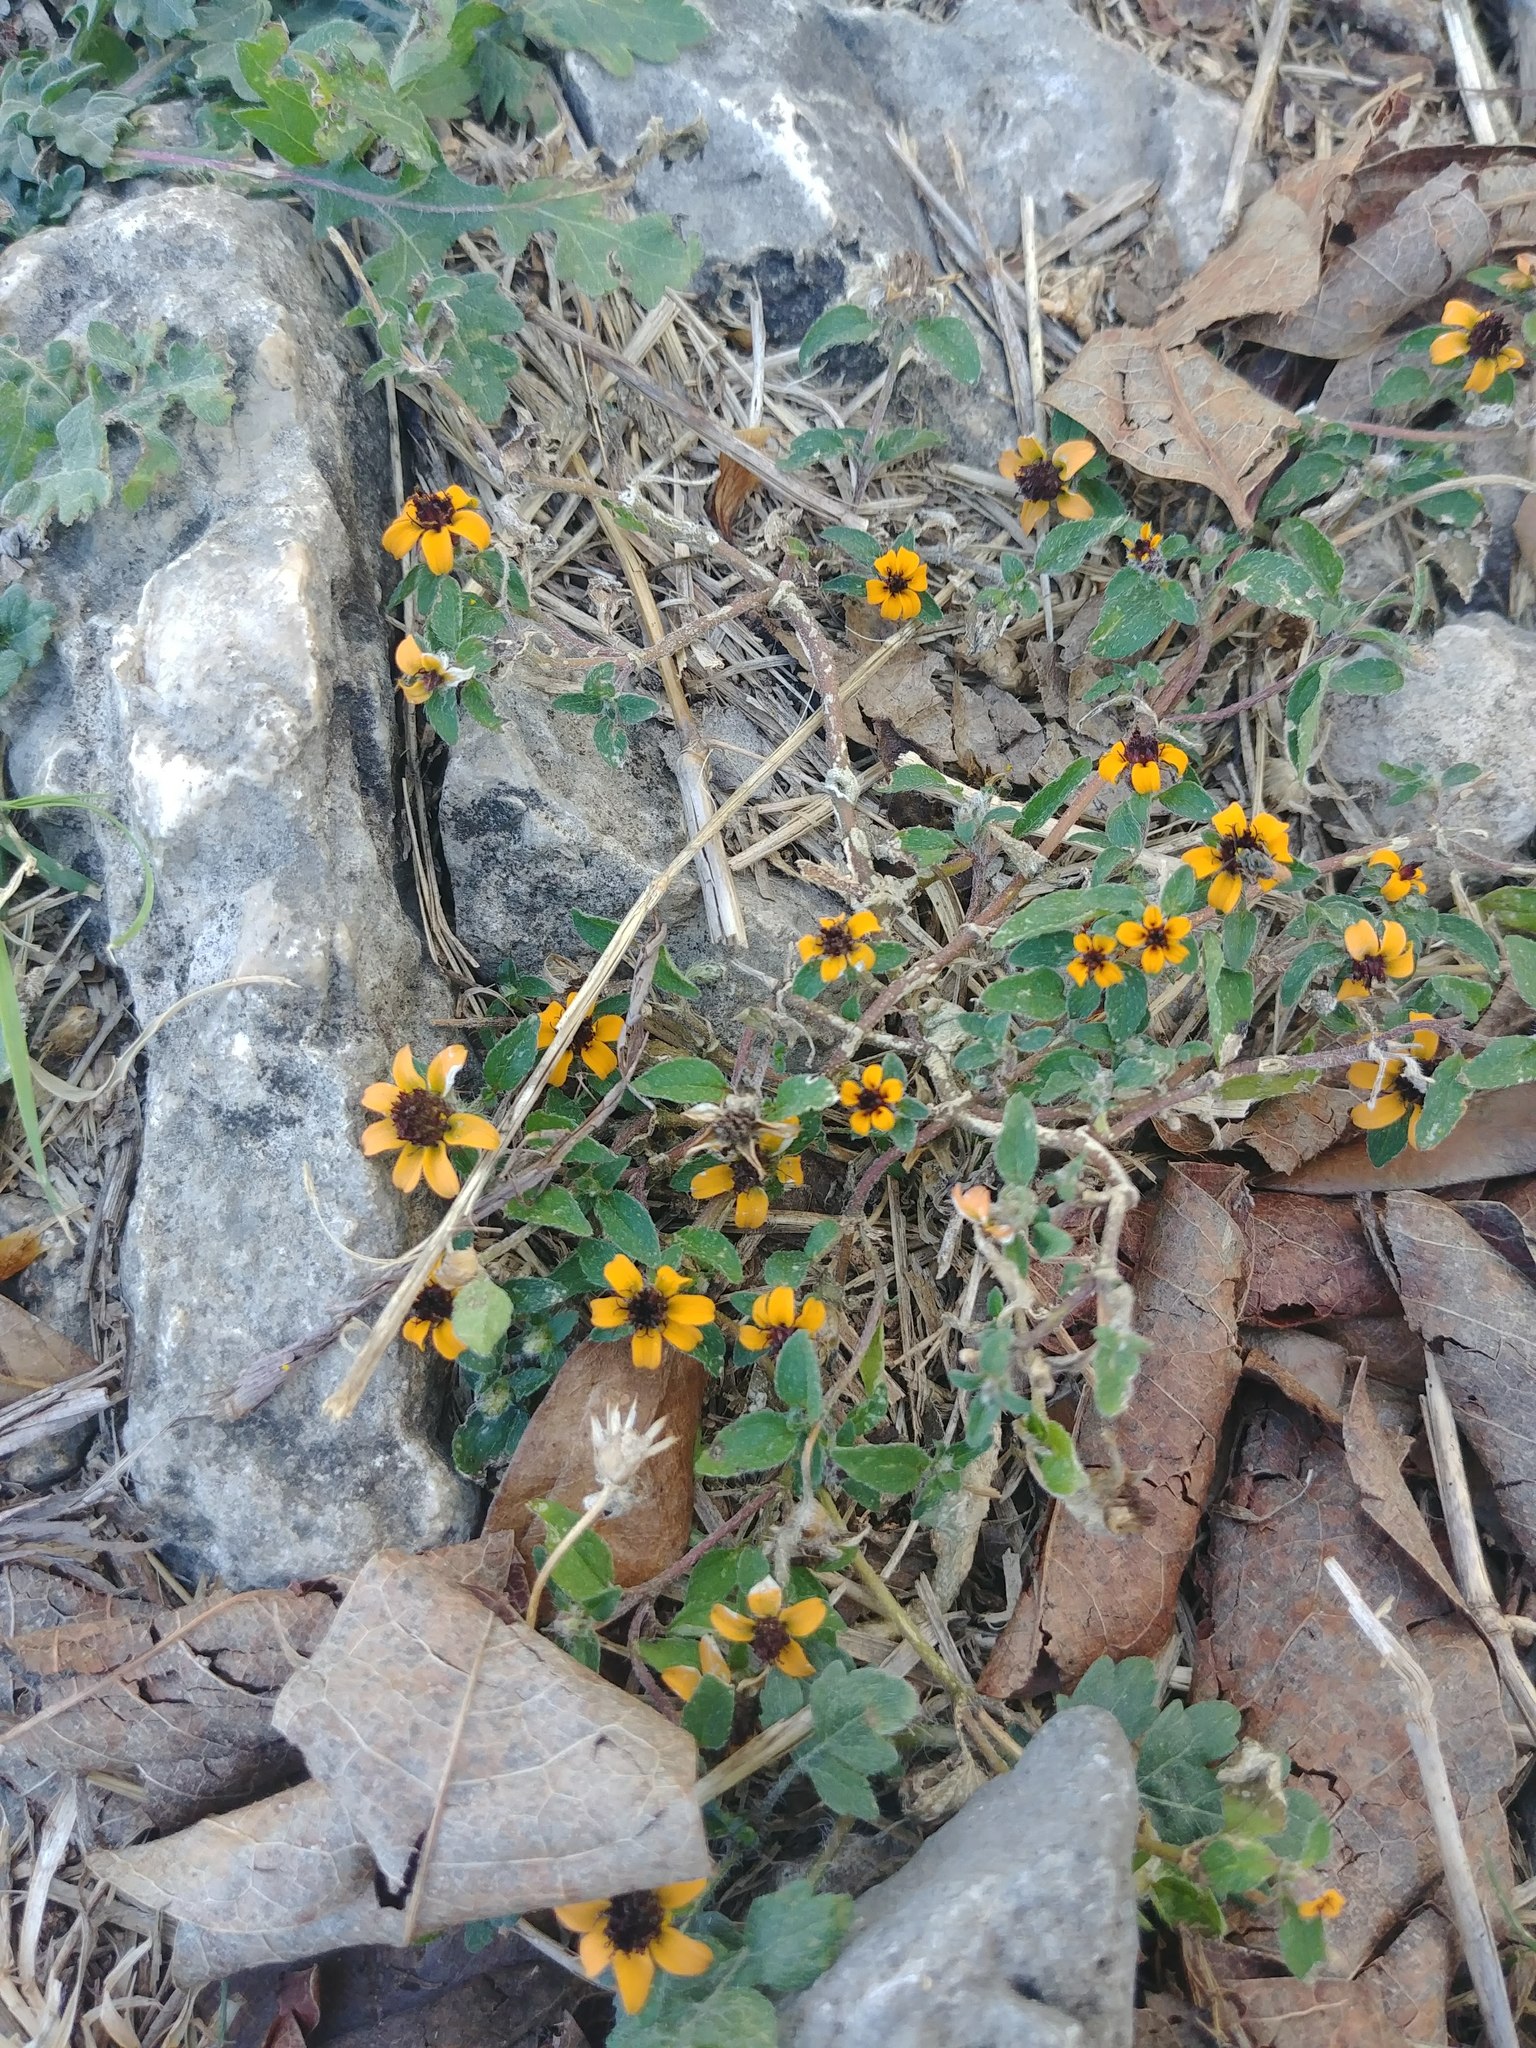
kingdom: Plantae
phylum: Tracheophyta
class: Magnoliopsida
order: Asterales
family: Asteraceae
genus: Sanvitalia
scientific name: Sanvitalia procumbens
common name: Mexican creeping zinnia
